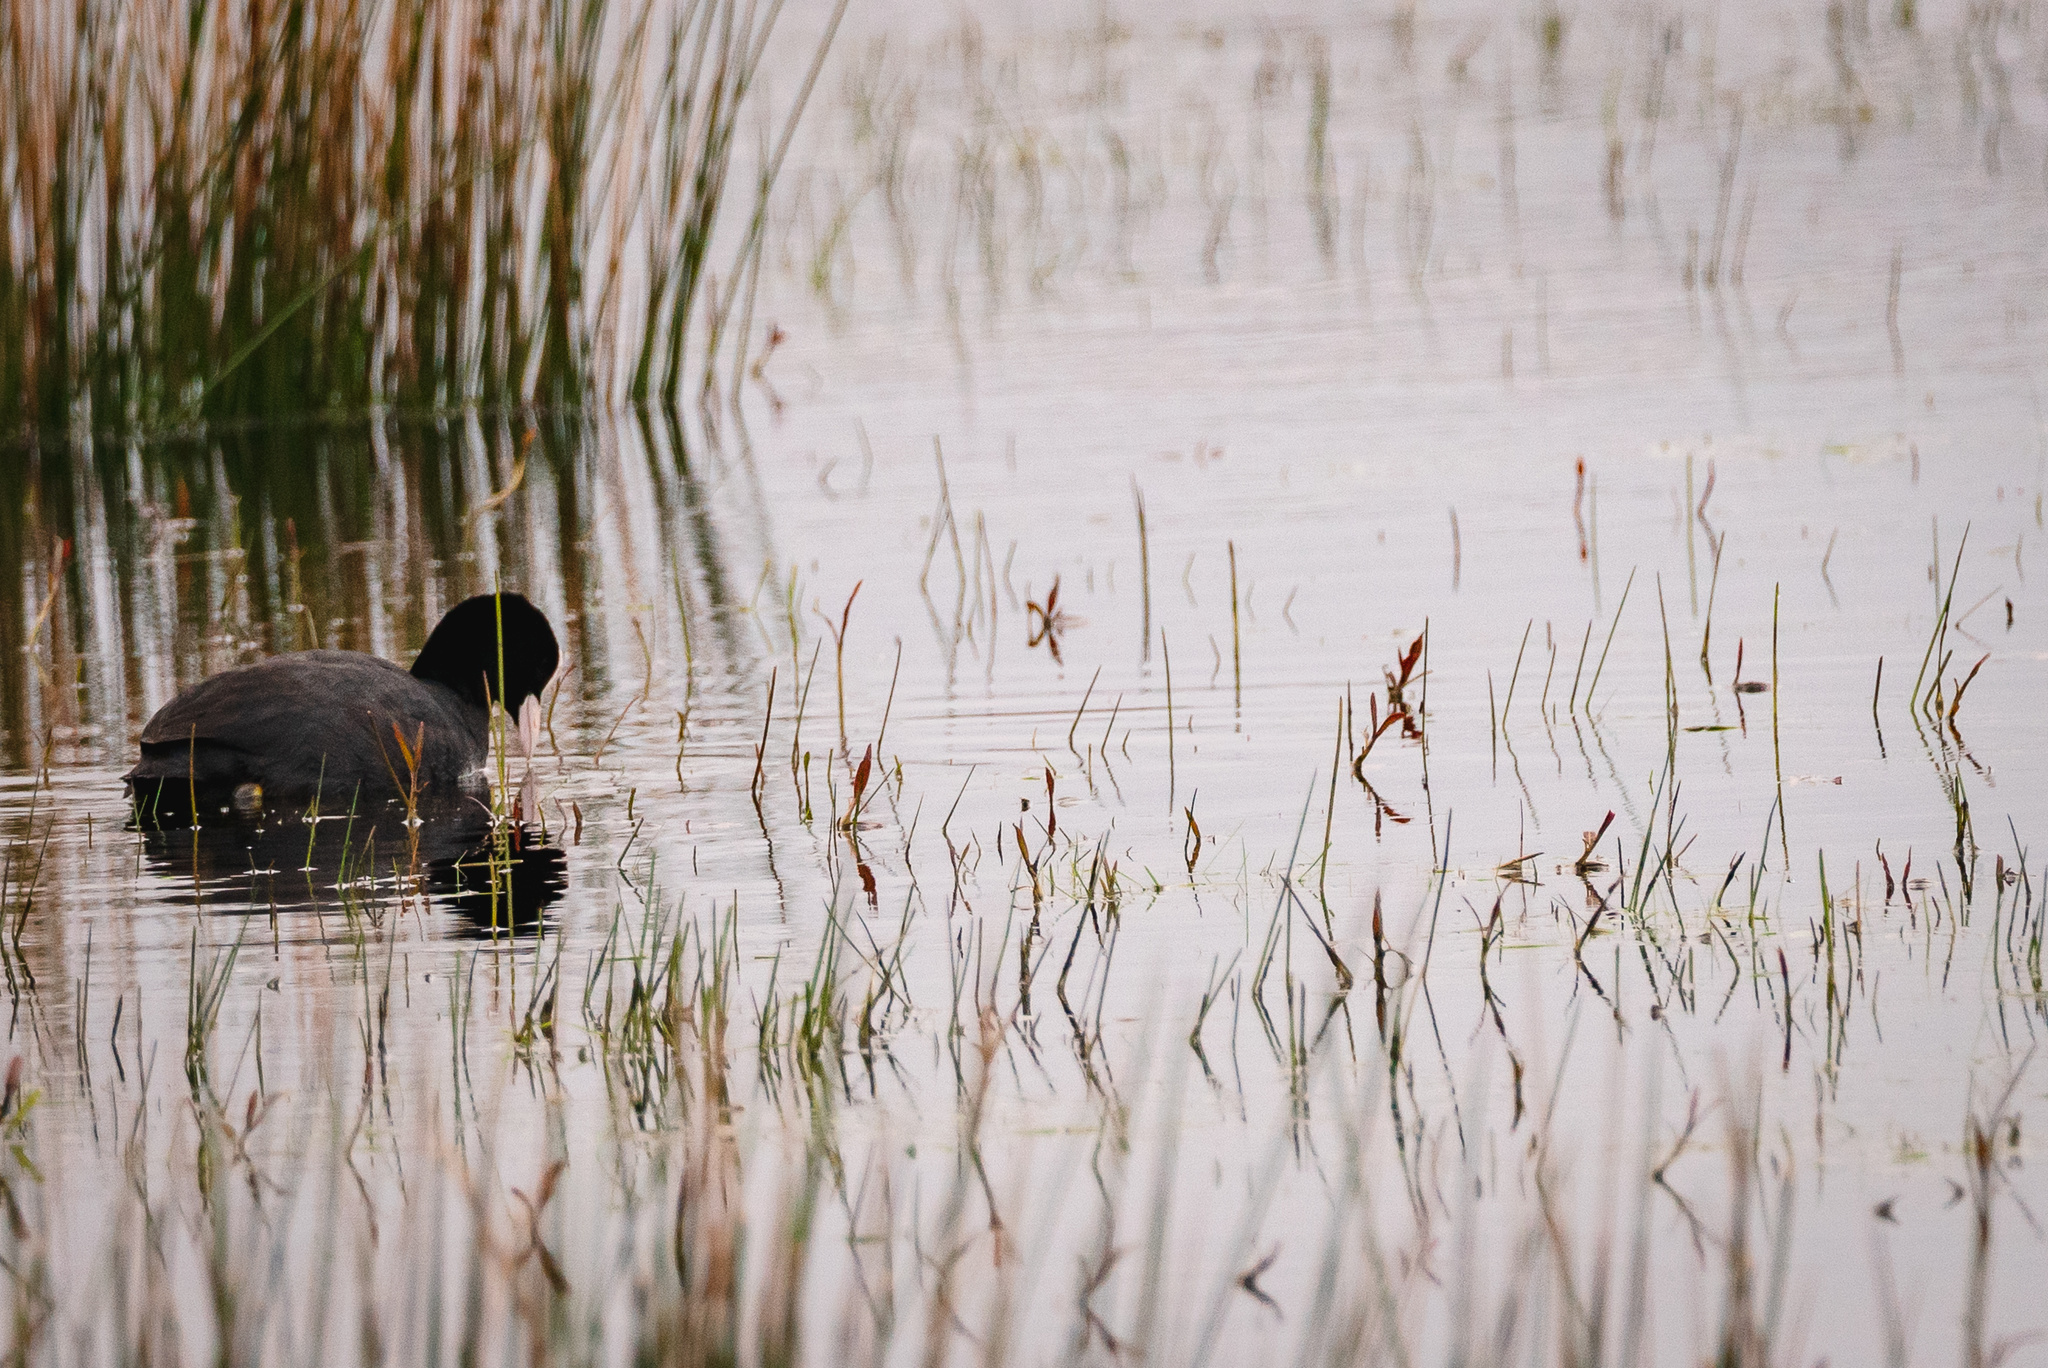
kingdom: Animalia
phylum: Chordata
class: Aves
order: Gruiformes
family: Rallidae
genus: Fulica
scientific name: Fulica atra
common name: Eurasian coot
